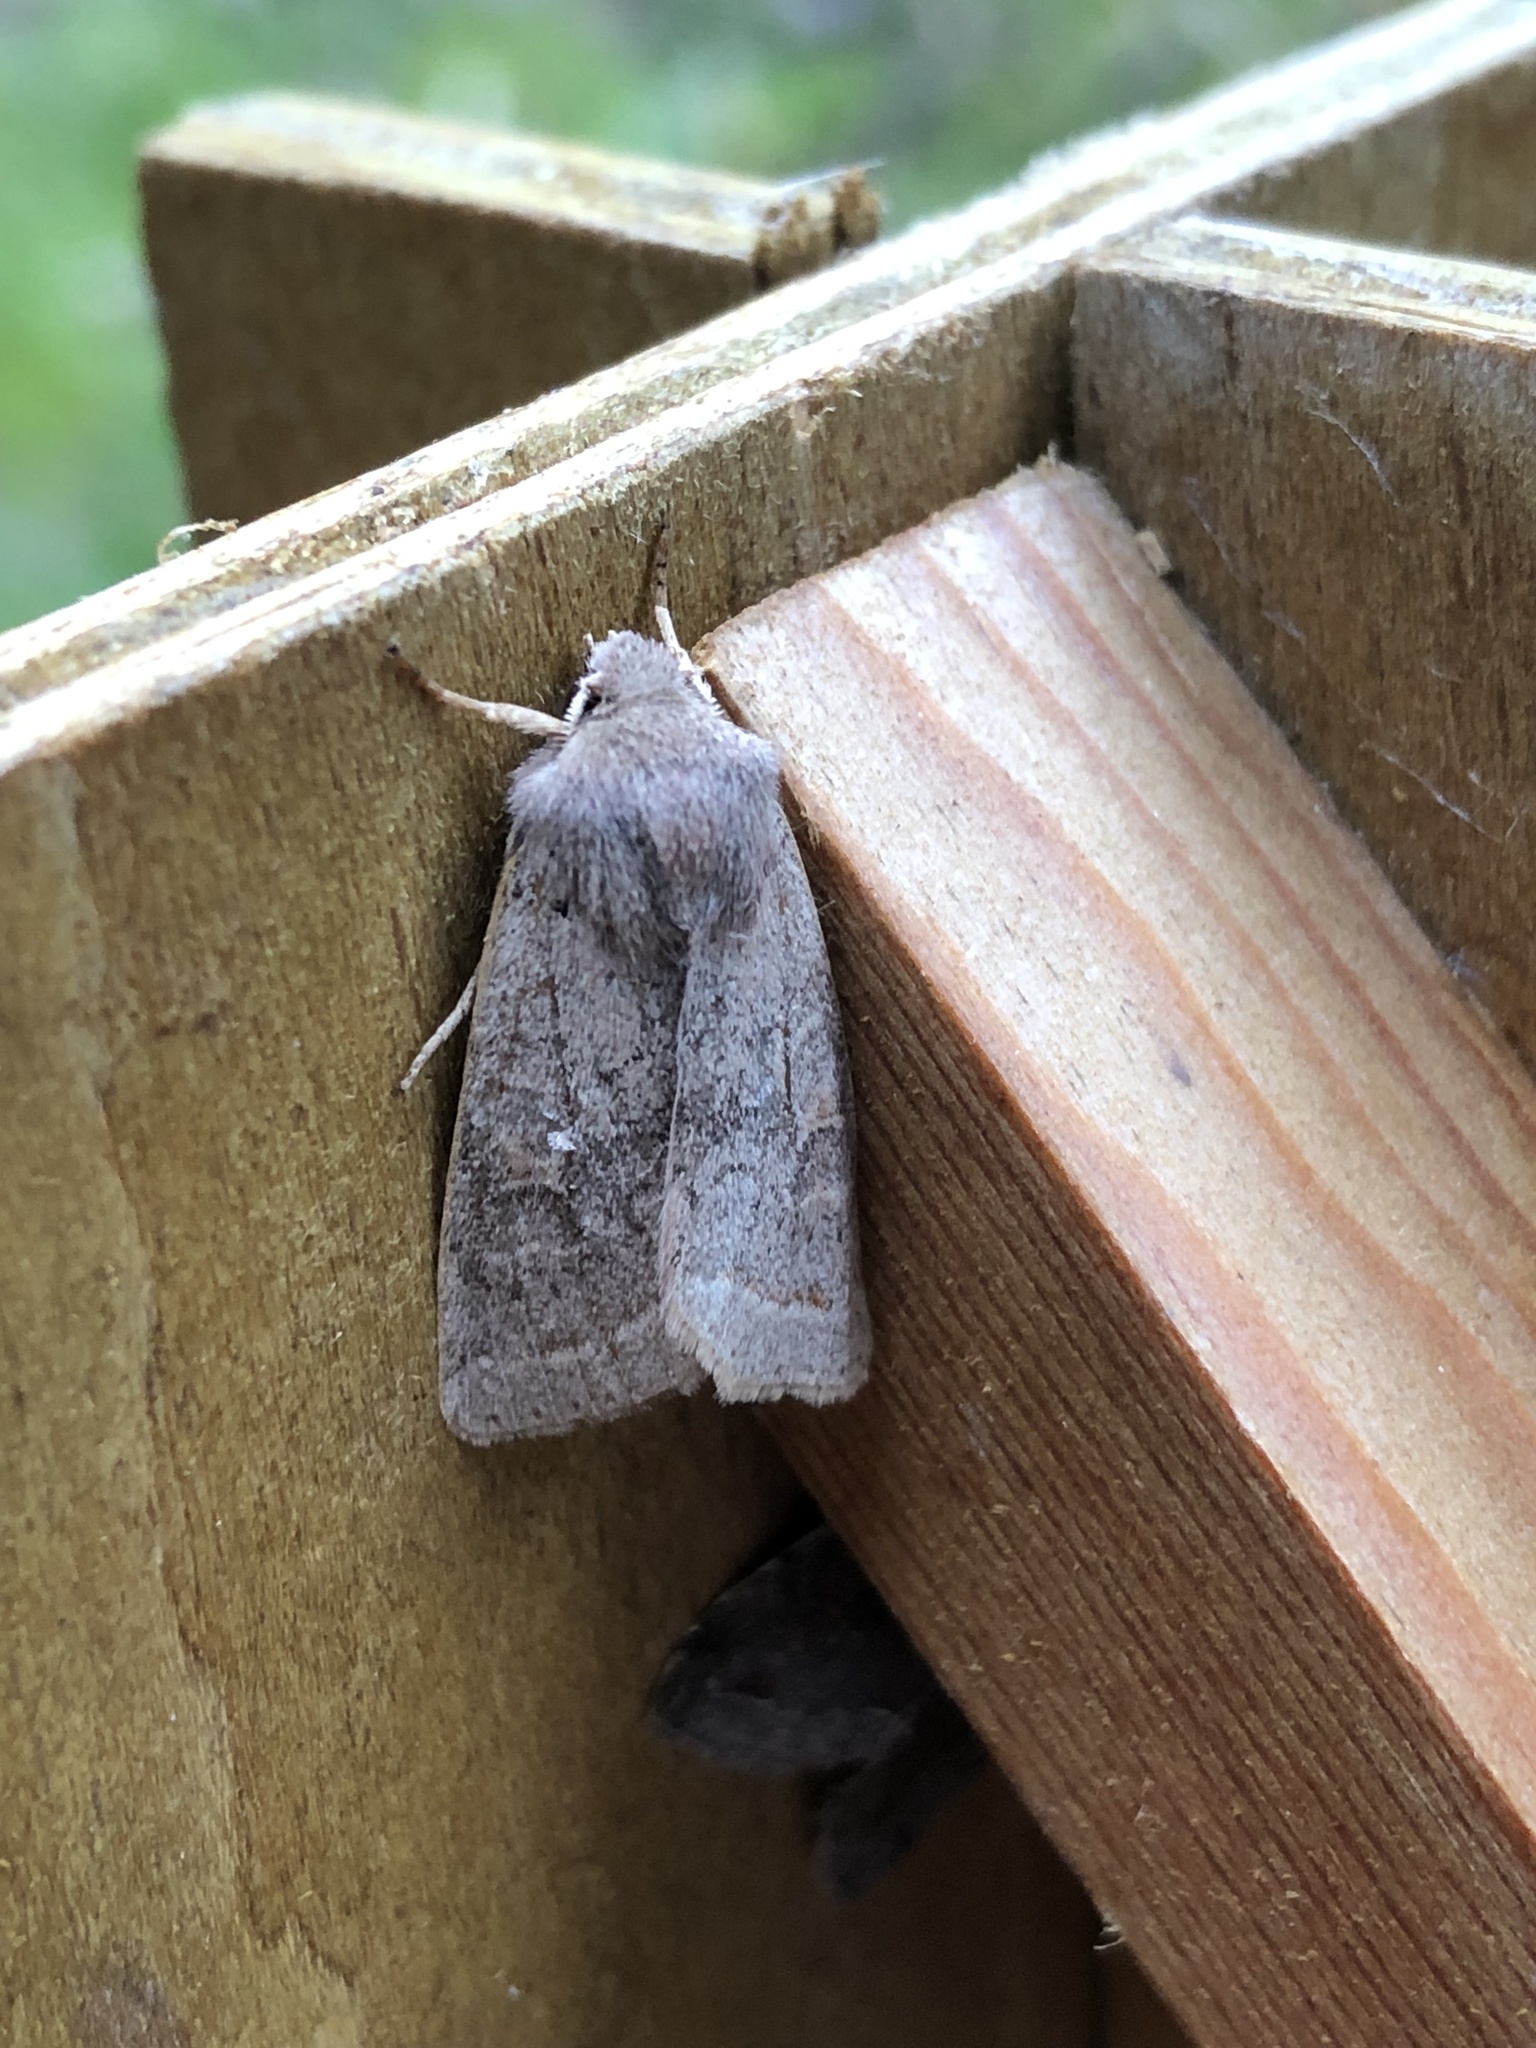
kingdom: Animalia
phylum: Arthropoda
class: Insecta
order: Lepidoptera
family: Noctuidae
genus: Orthosia
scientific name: Orthosia cerasi
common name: Common quaker
